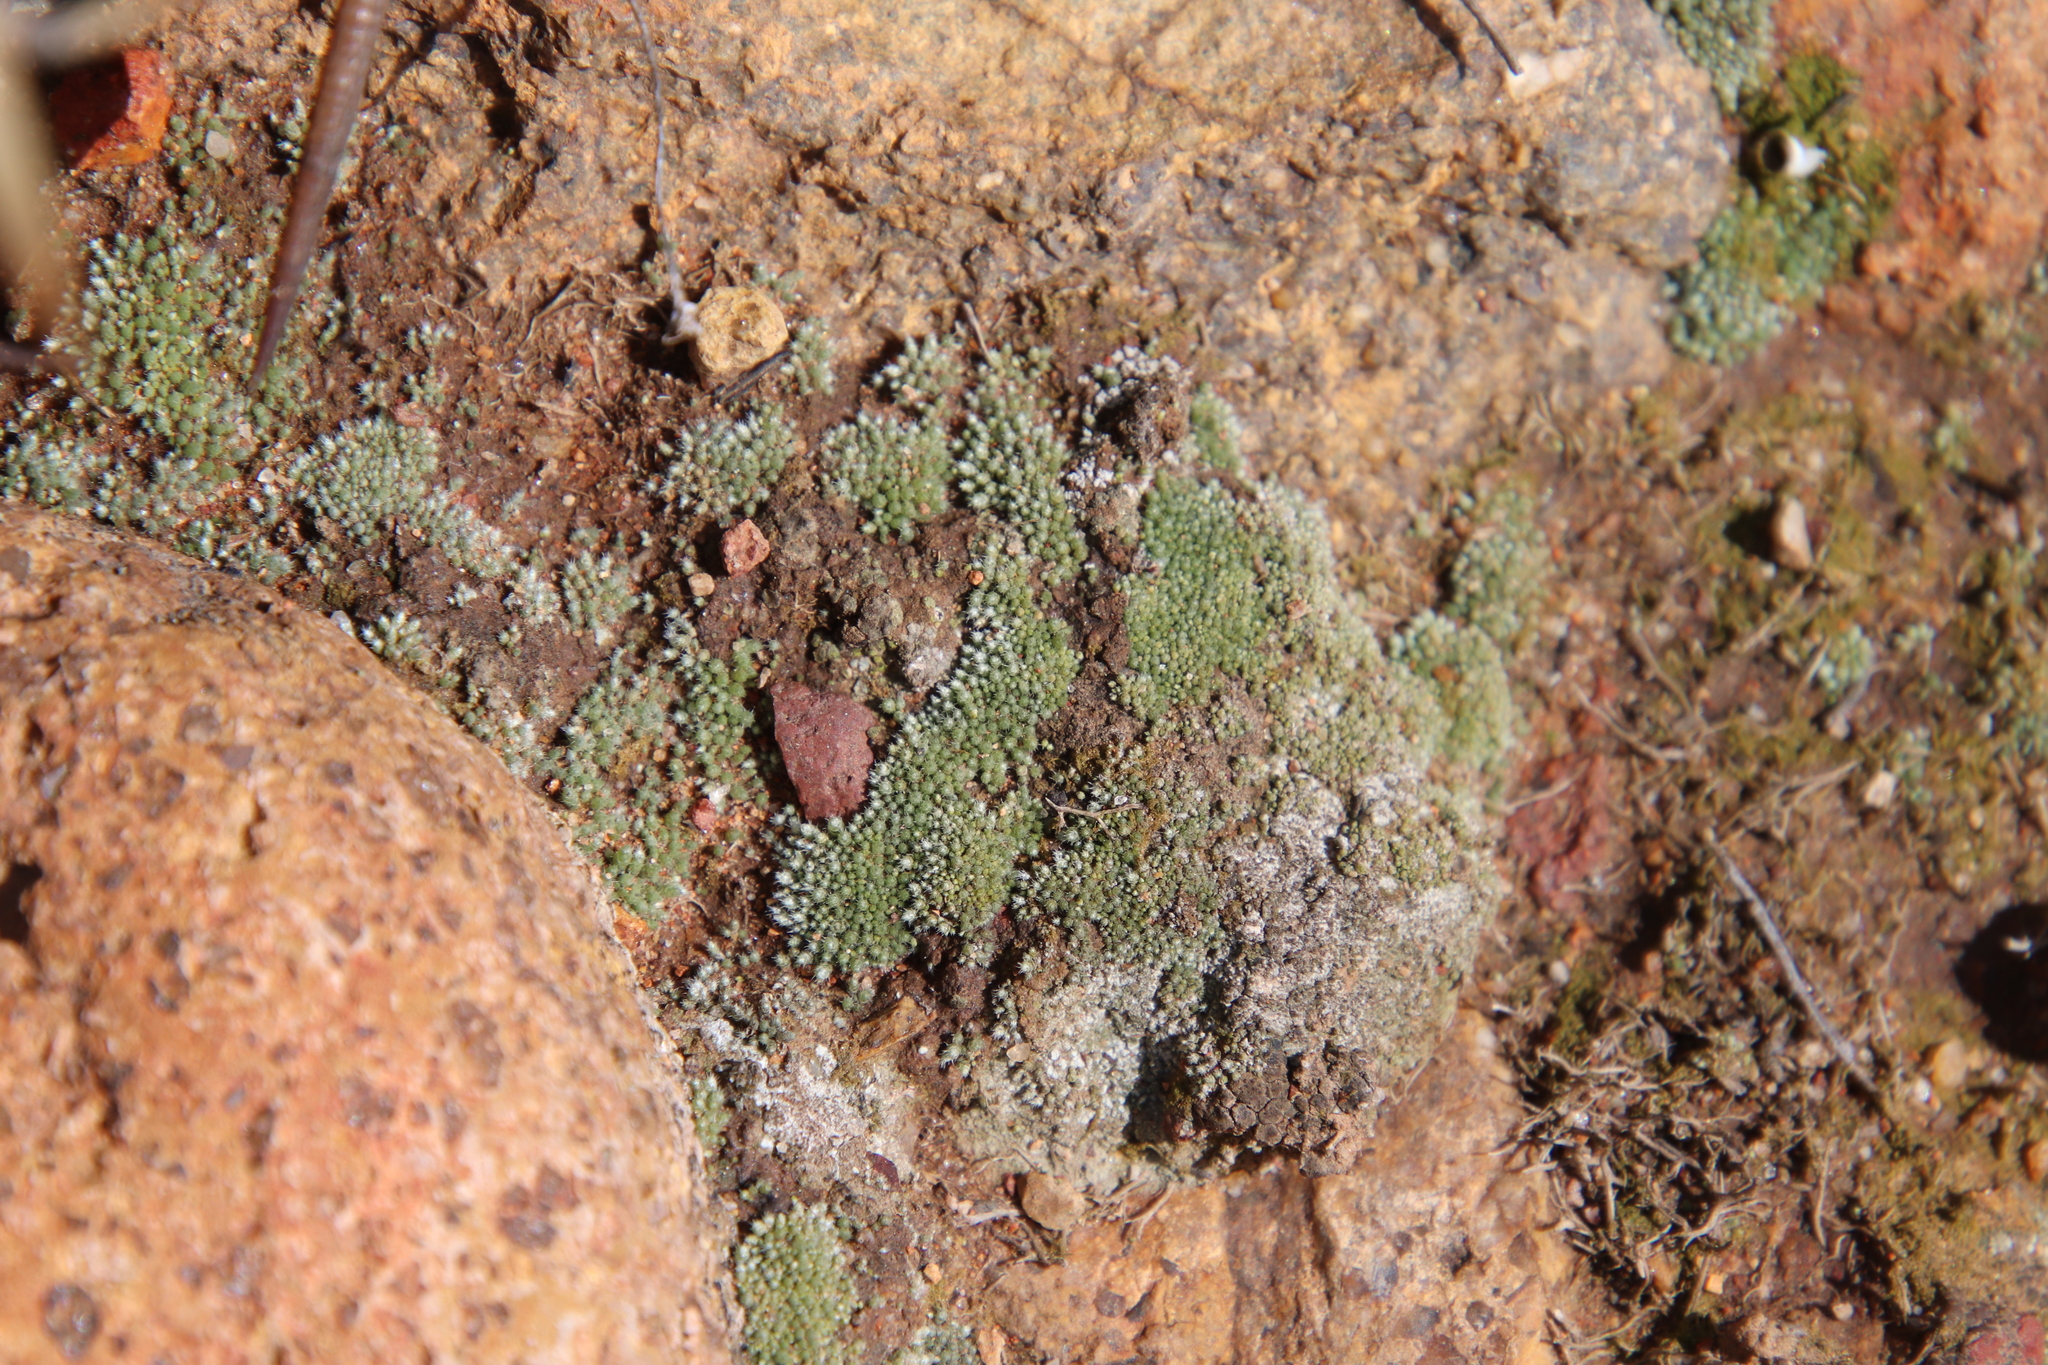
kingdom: Plantae
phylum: Bryophyta
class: Bryopsida
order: Bryales
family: Bryaceae
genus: Bryum
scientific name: Bryum argenteum
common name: Silver-moss
